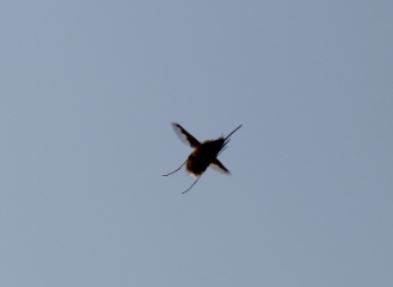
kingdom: Animalia
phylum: Arthropoda
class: Insecta
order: Diptera
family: Bombyliidae
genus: Bombylius
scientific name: Bombylius major
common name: Bee fly
